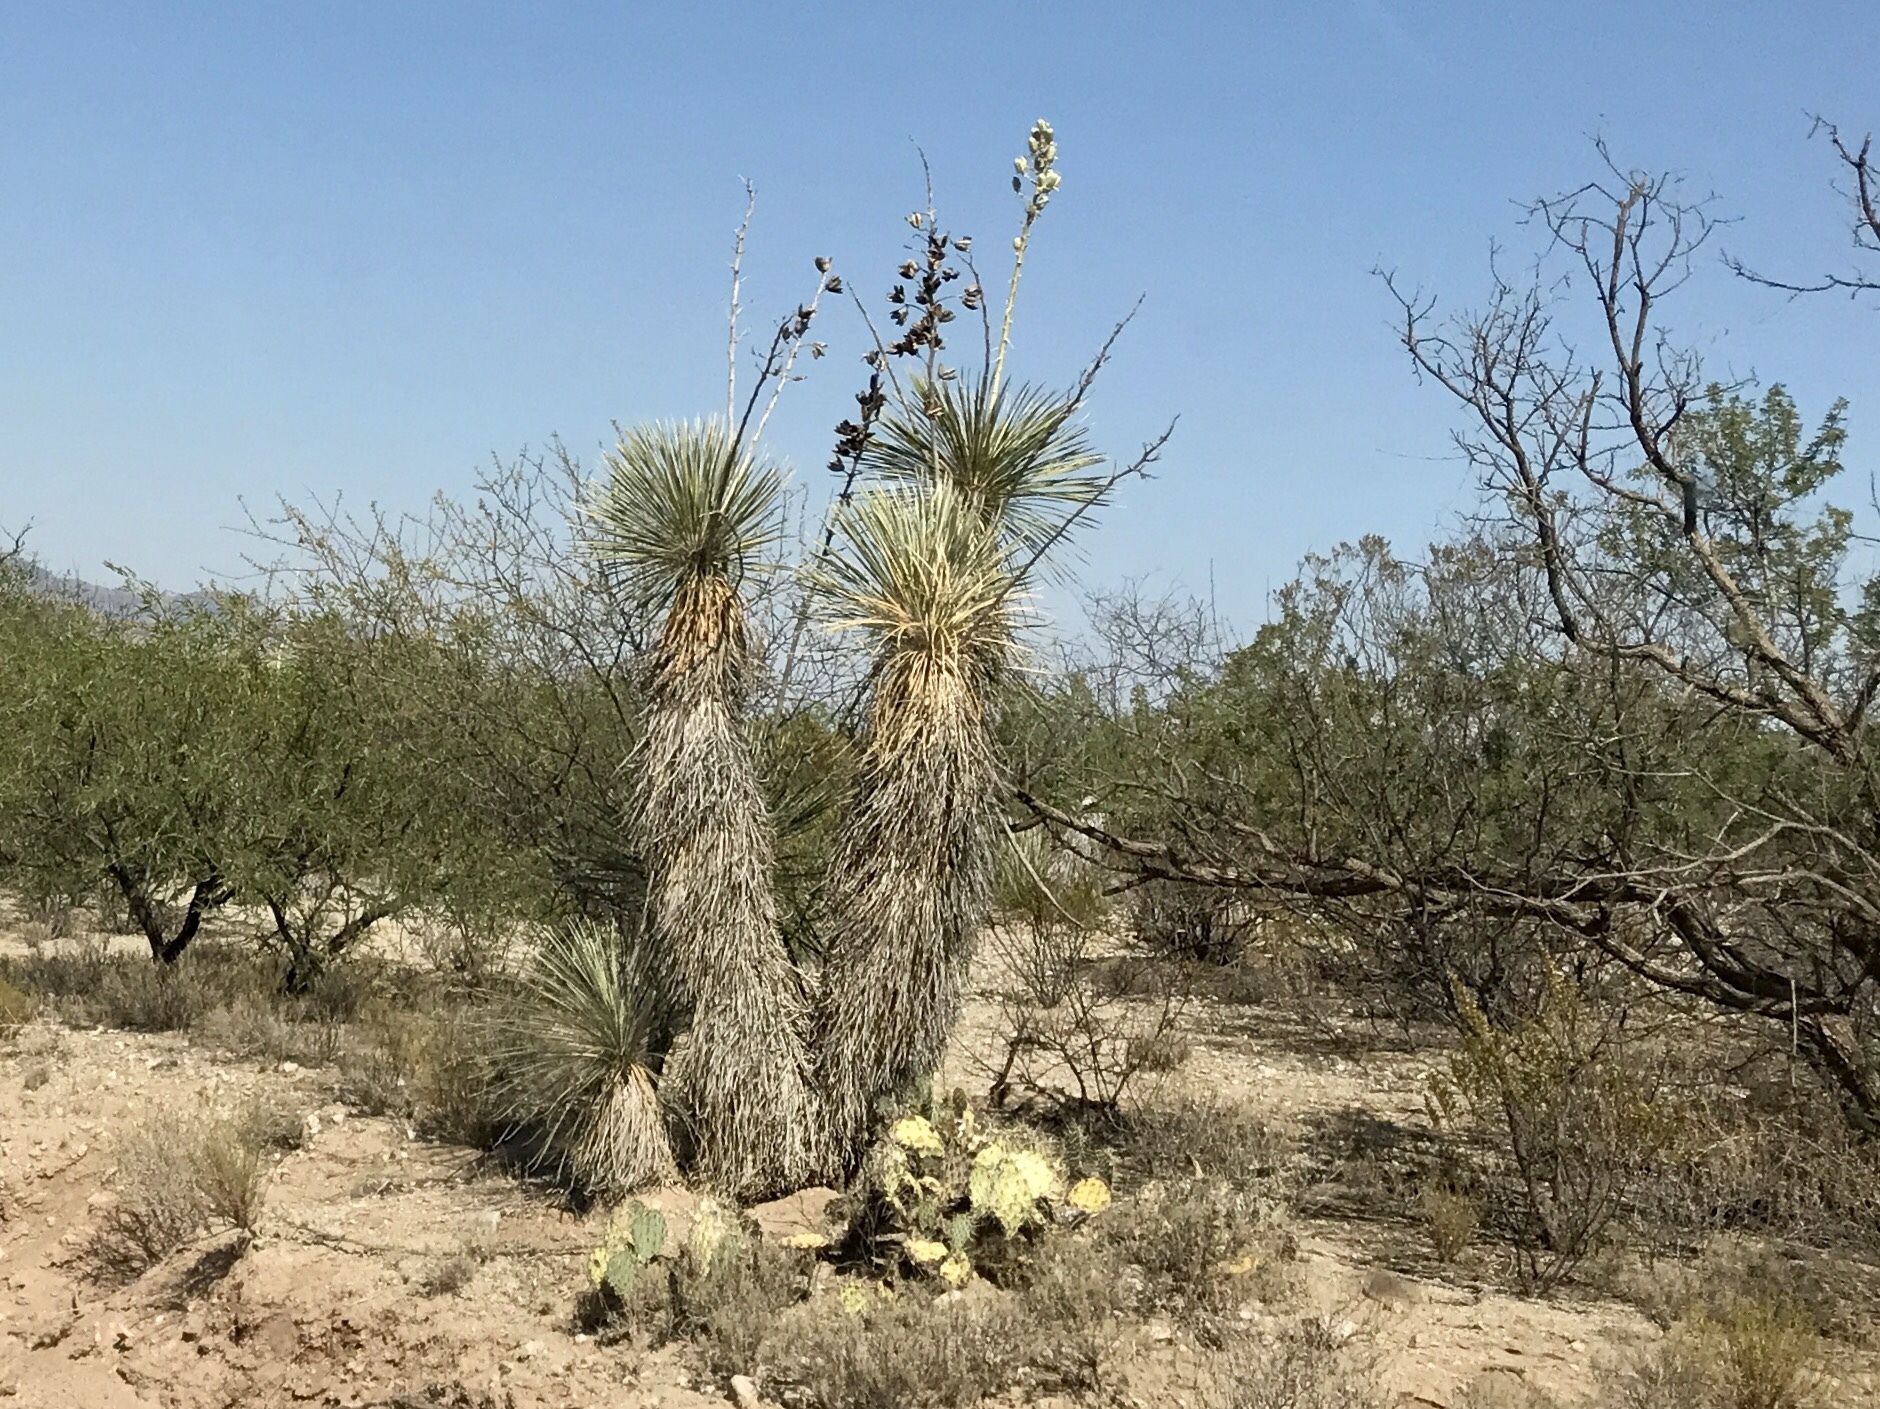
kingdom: Plantae
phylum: Tracheophyta
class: Liliopsida
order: Asparagales
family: Asparagaceae
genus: Yucca
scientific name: Yucca elata
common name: Palmella
